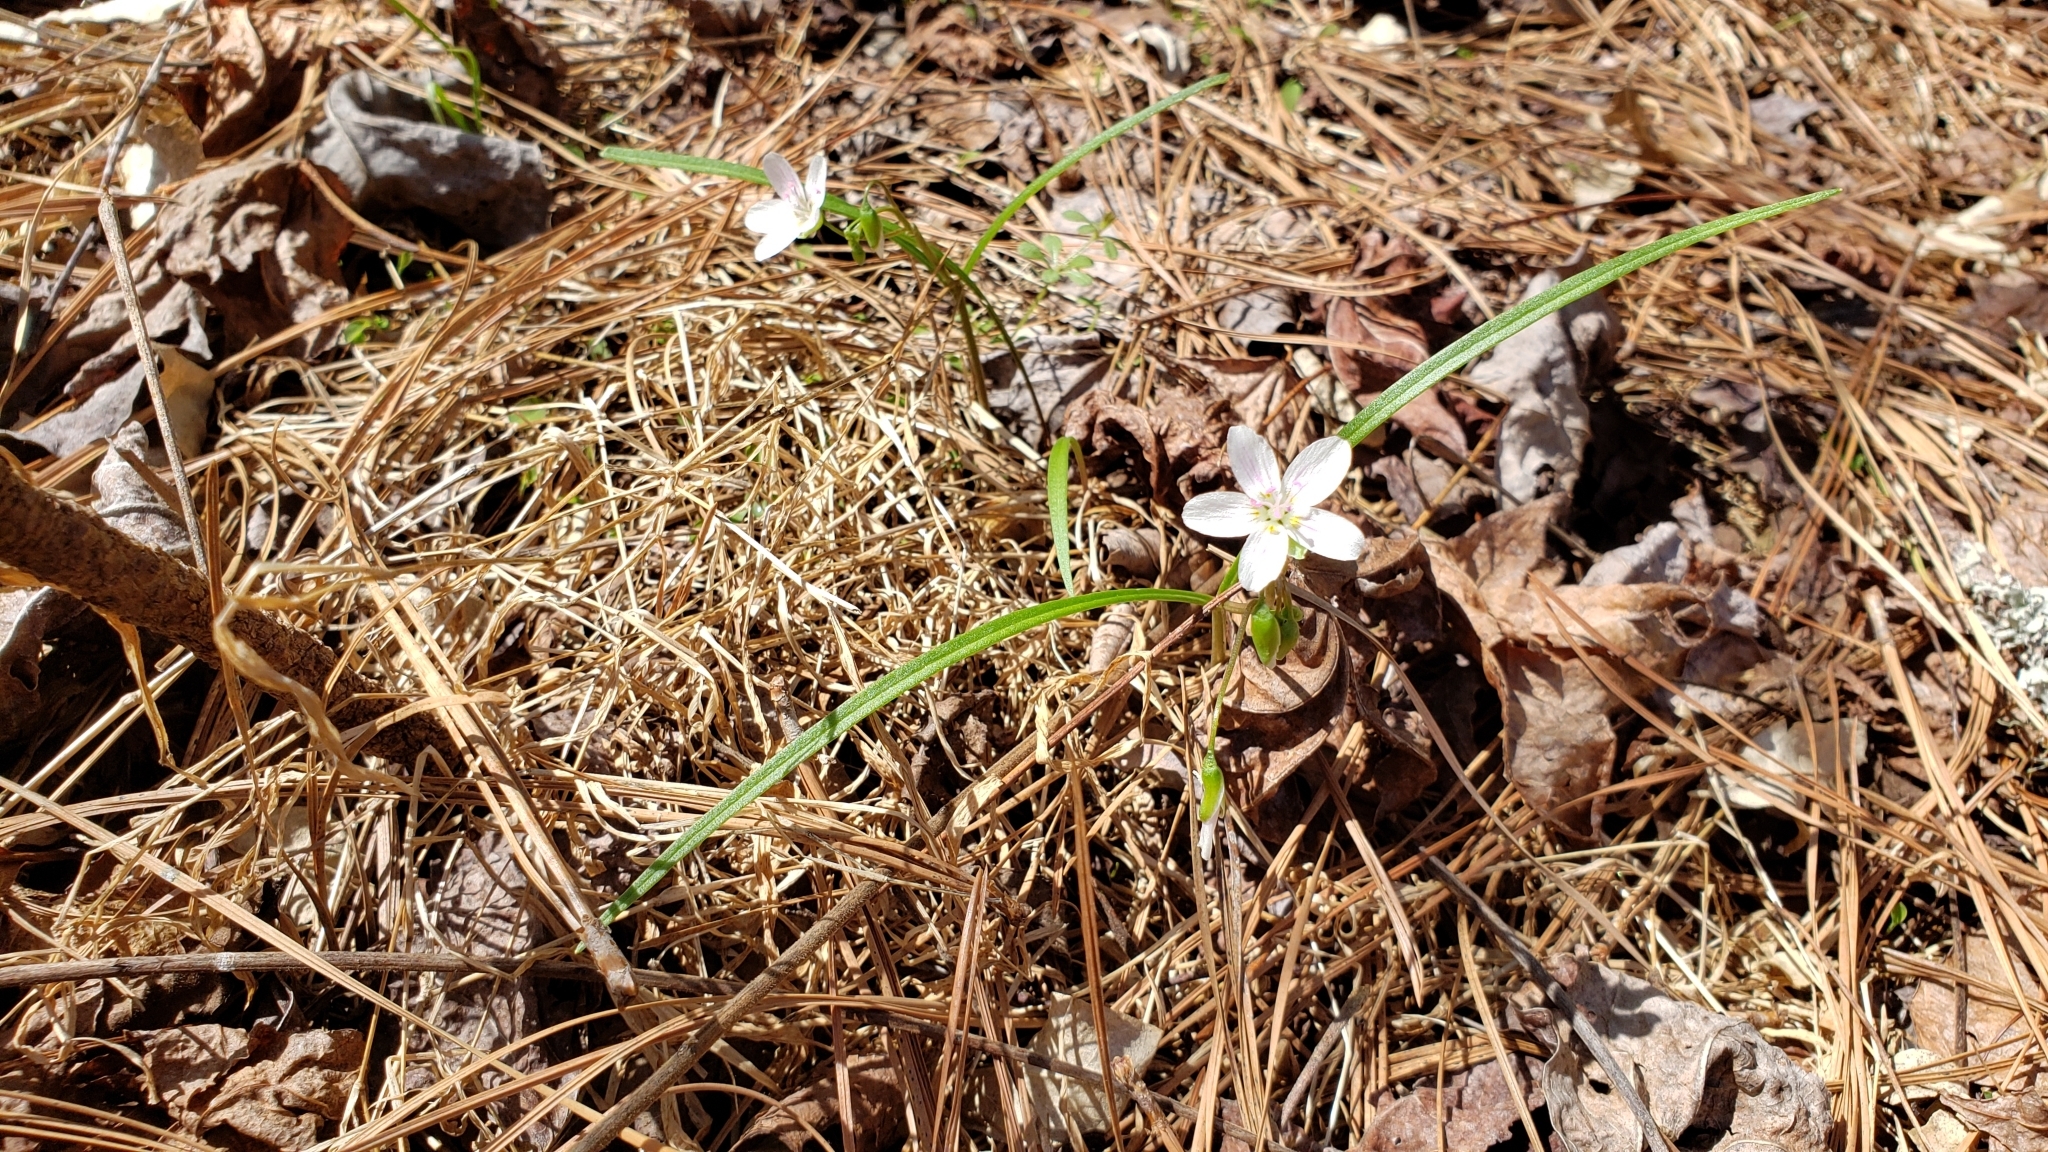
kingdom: Plantae
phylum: Tracheophyta
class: Magnoliopsida
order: Caryophyllales
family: Montiaceae
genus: Claytonia
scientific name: Claytonia virginica
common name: Virginia springbeauty
